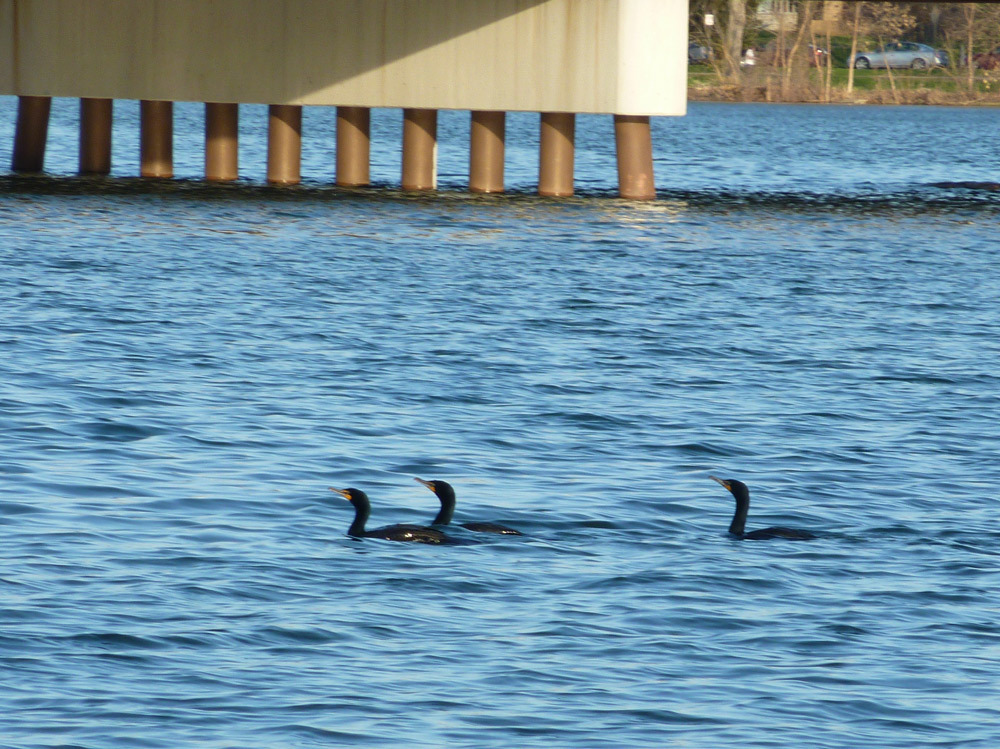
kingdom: Animalia
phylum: Chordata
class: Aves
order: Suliformes
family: Phalacrocoracidae
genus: Phalacrocorax
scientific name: Phalacrocorax auritus
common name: Double-crested cormorant
